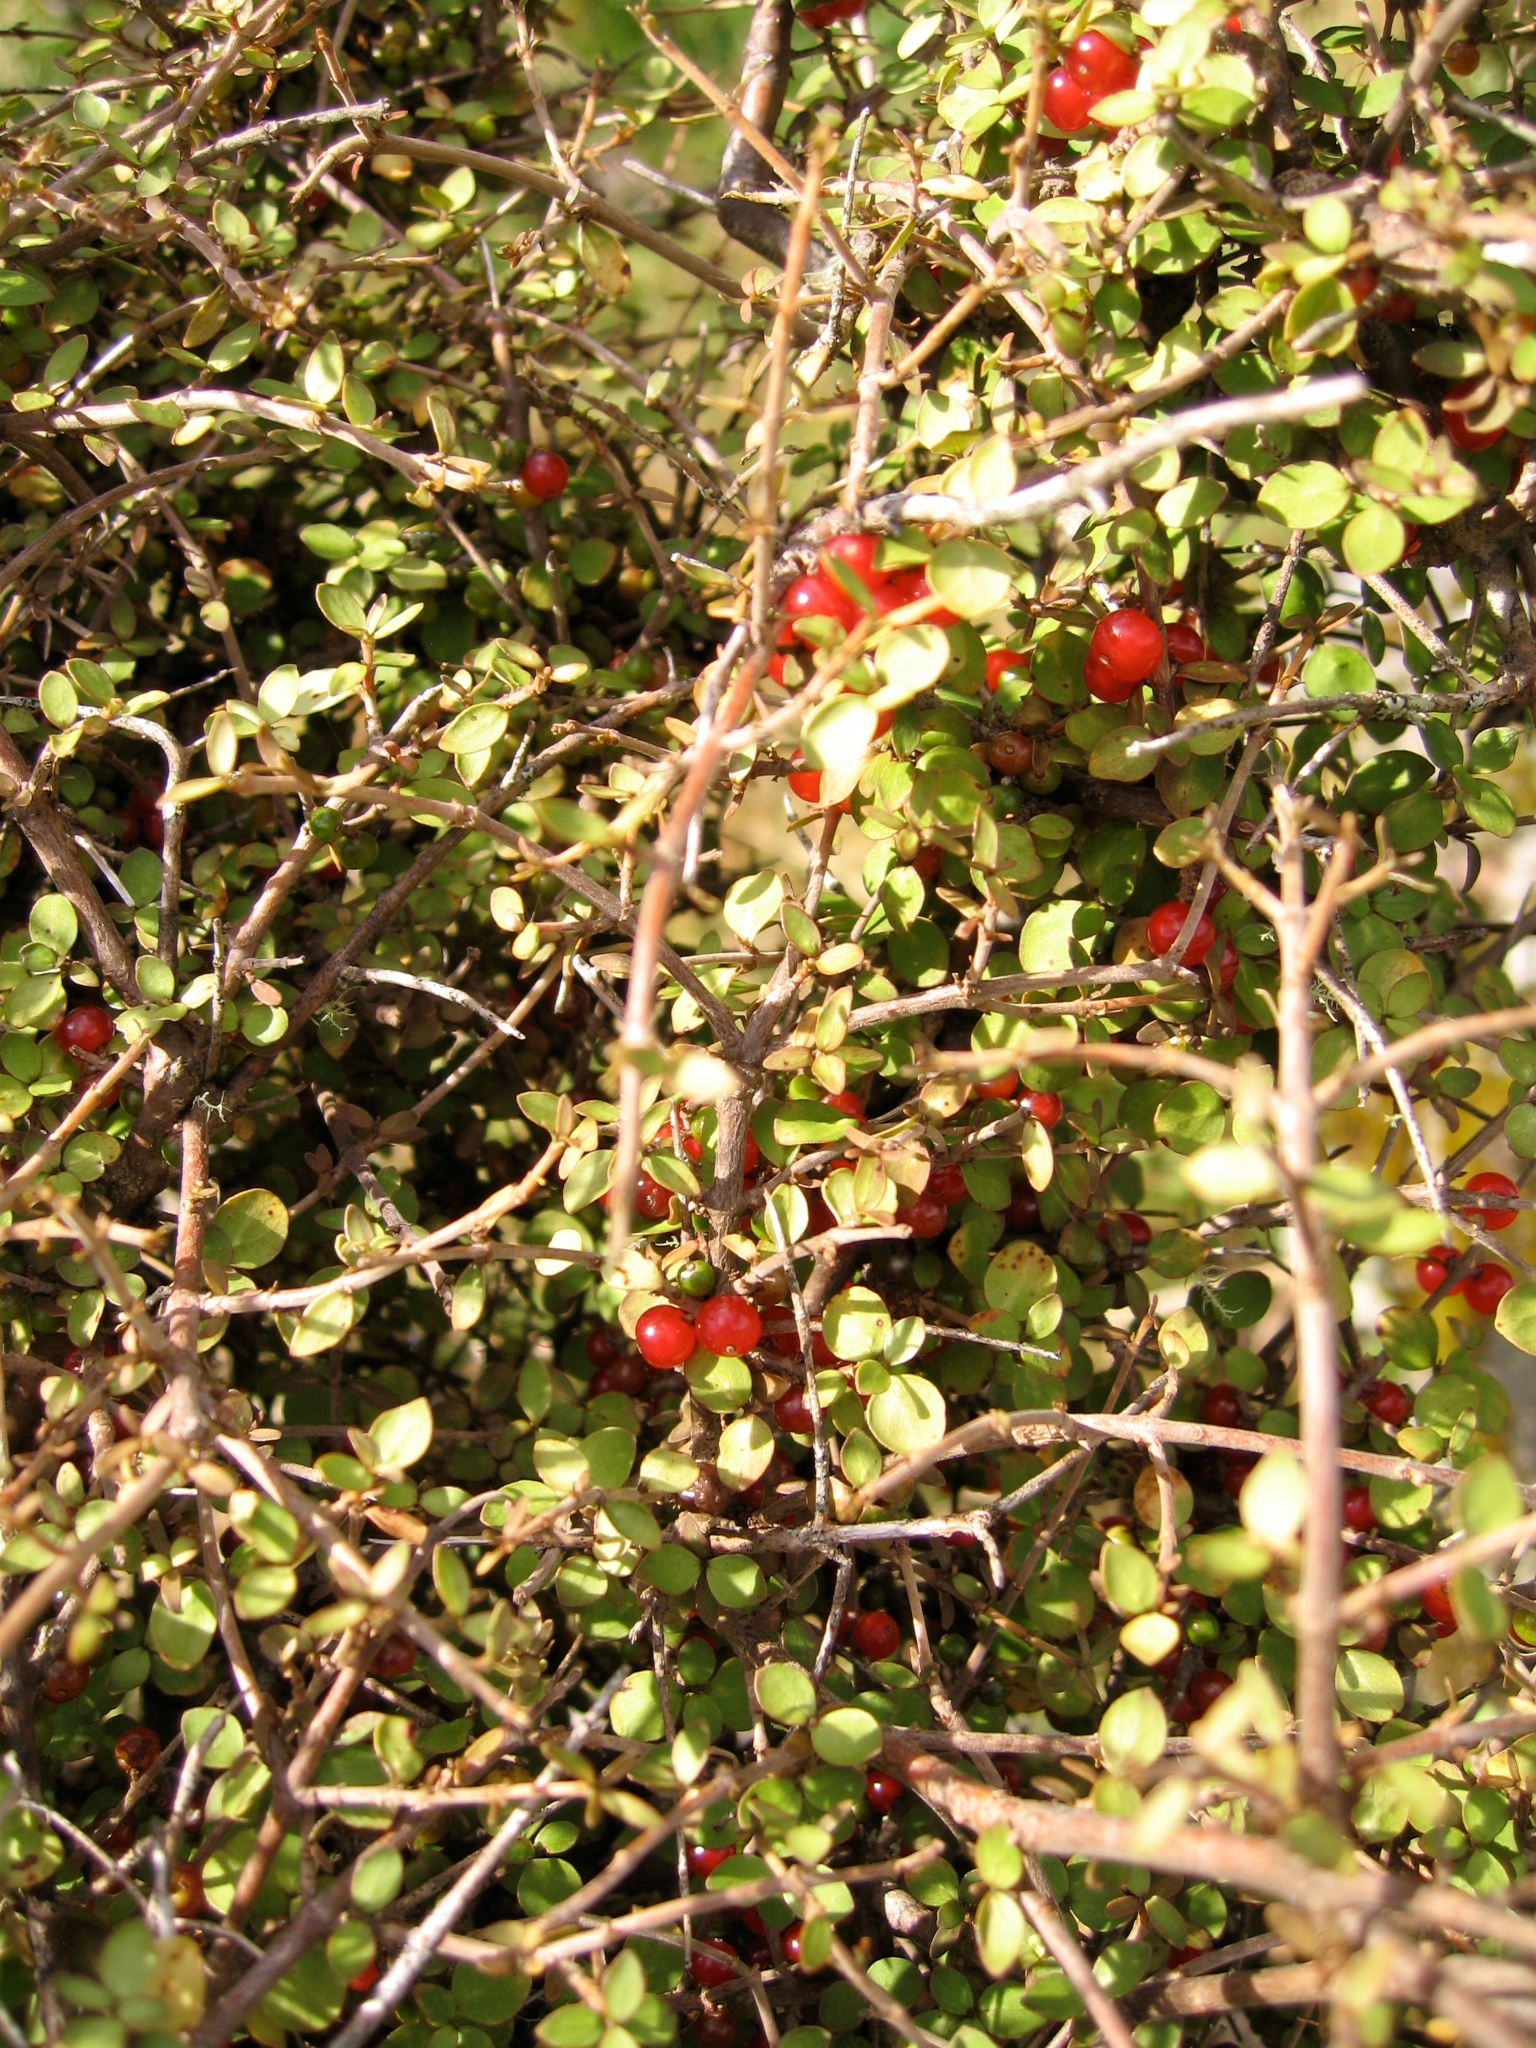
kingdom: Plantae
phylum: Tracheophyta
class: Magnoliopsida
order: Gentianales
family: Rubiaceae
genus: Coprosma
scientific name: Coprosma rhamnoides
